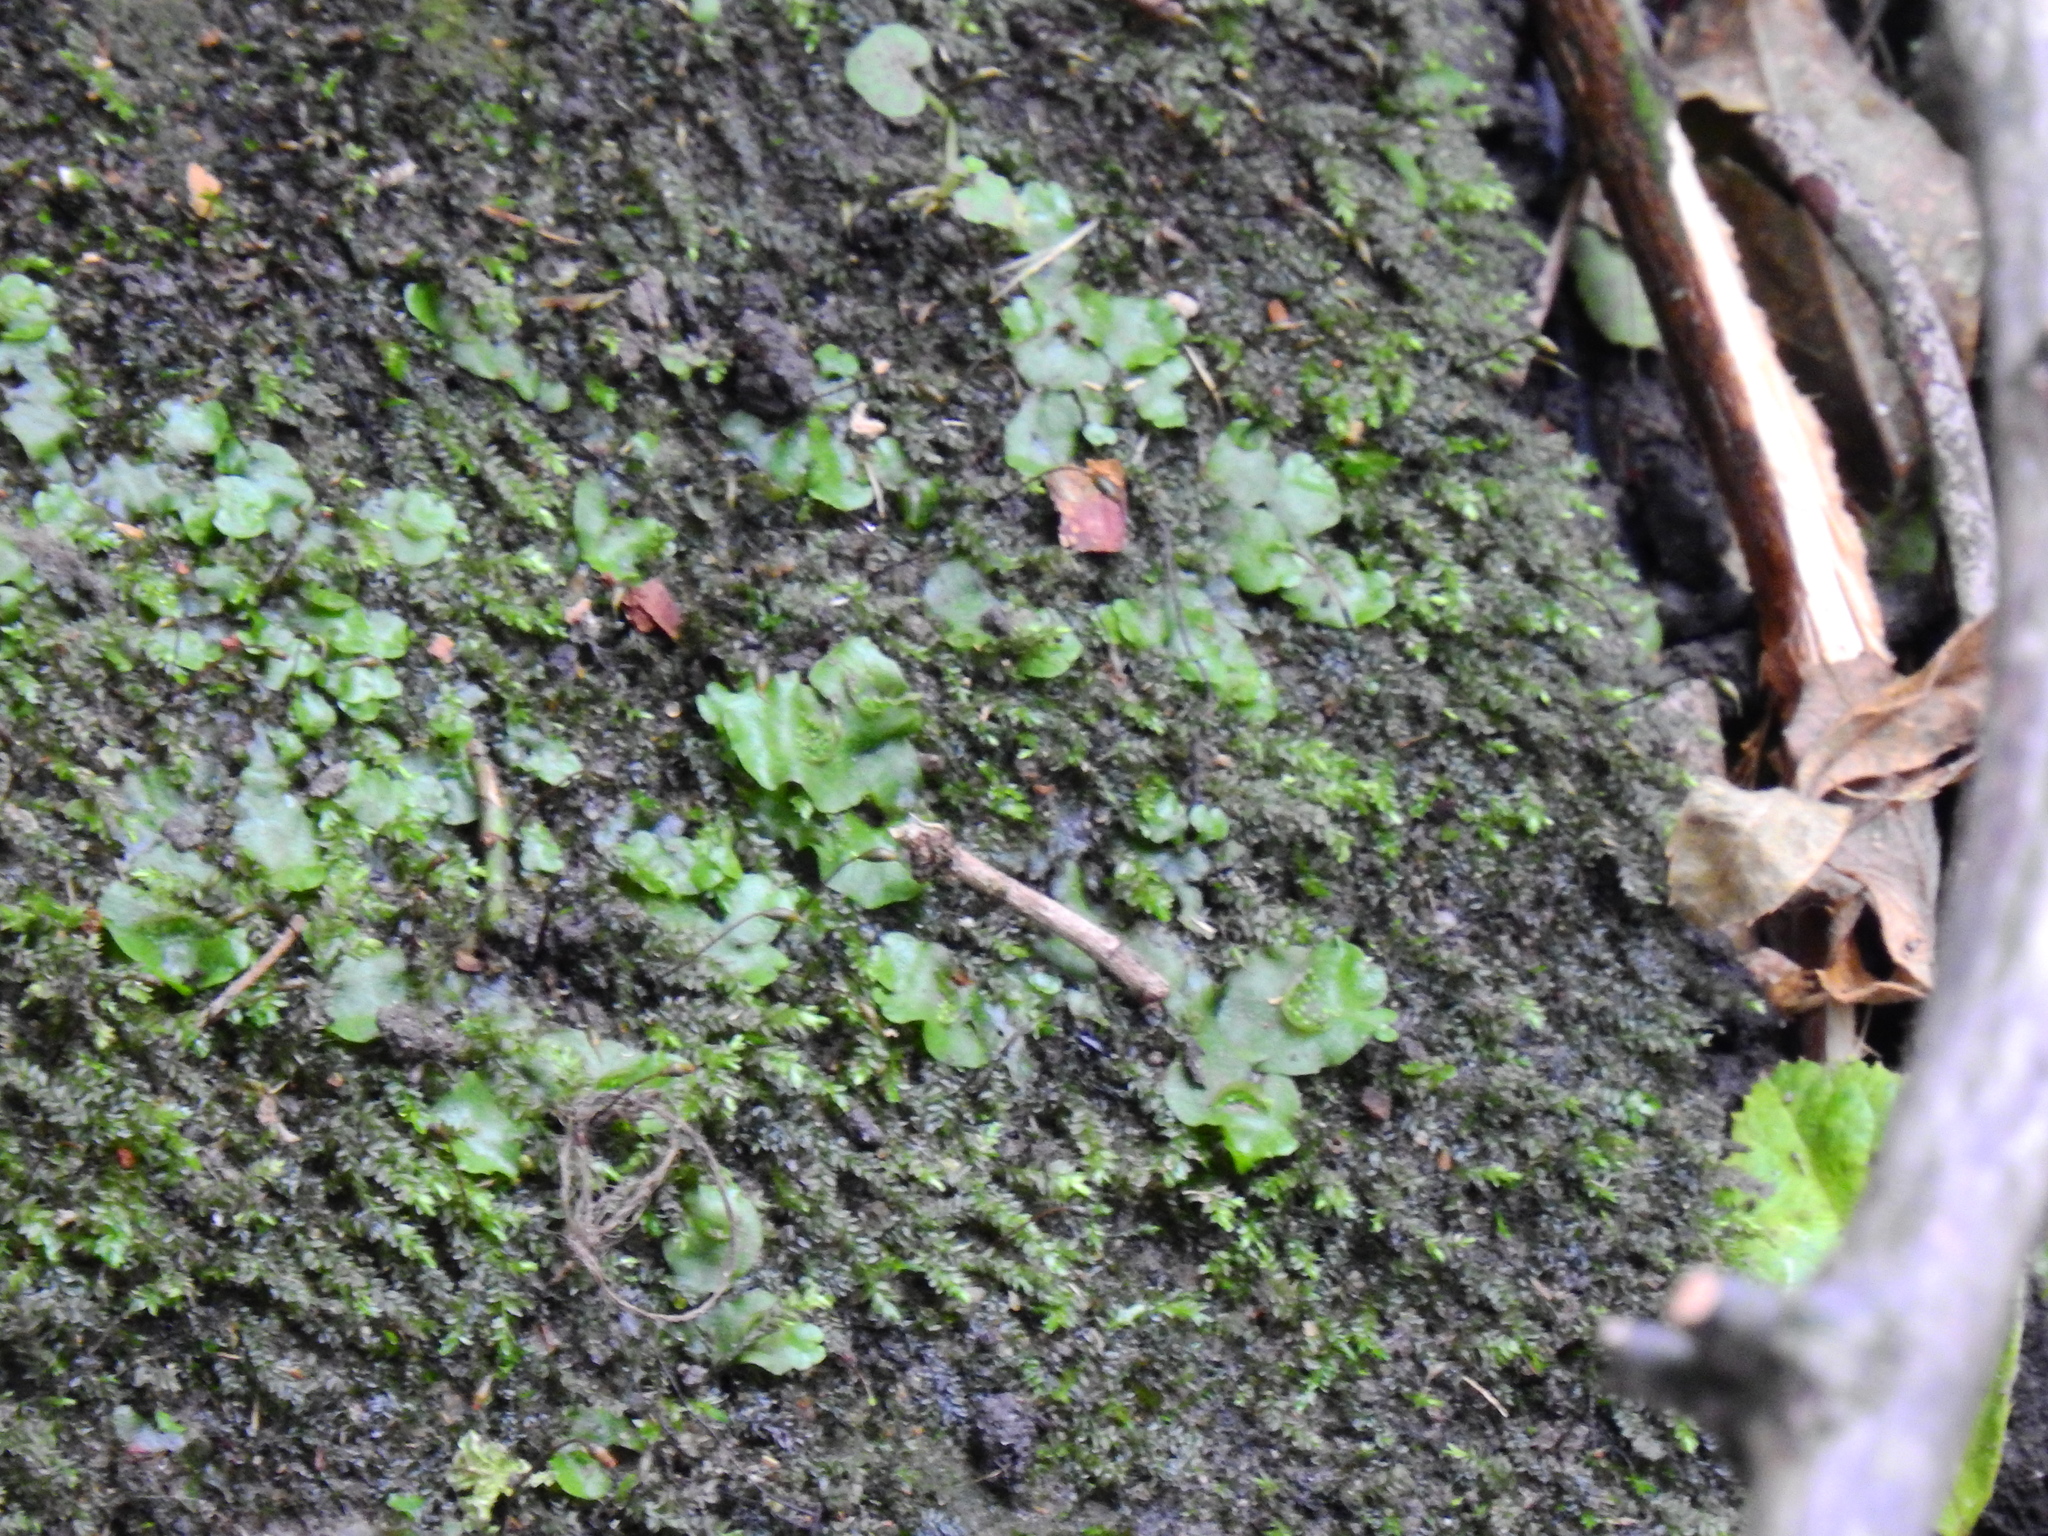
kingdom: Plantae
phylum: Marchantiophyta
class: Marchantiopsida
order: Lunulariales
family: Lunulariaceae
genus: Lunularia
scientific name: Lunularia cruciata
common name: Crescent-cup liverwort
